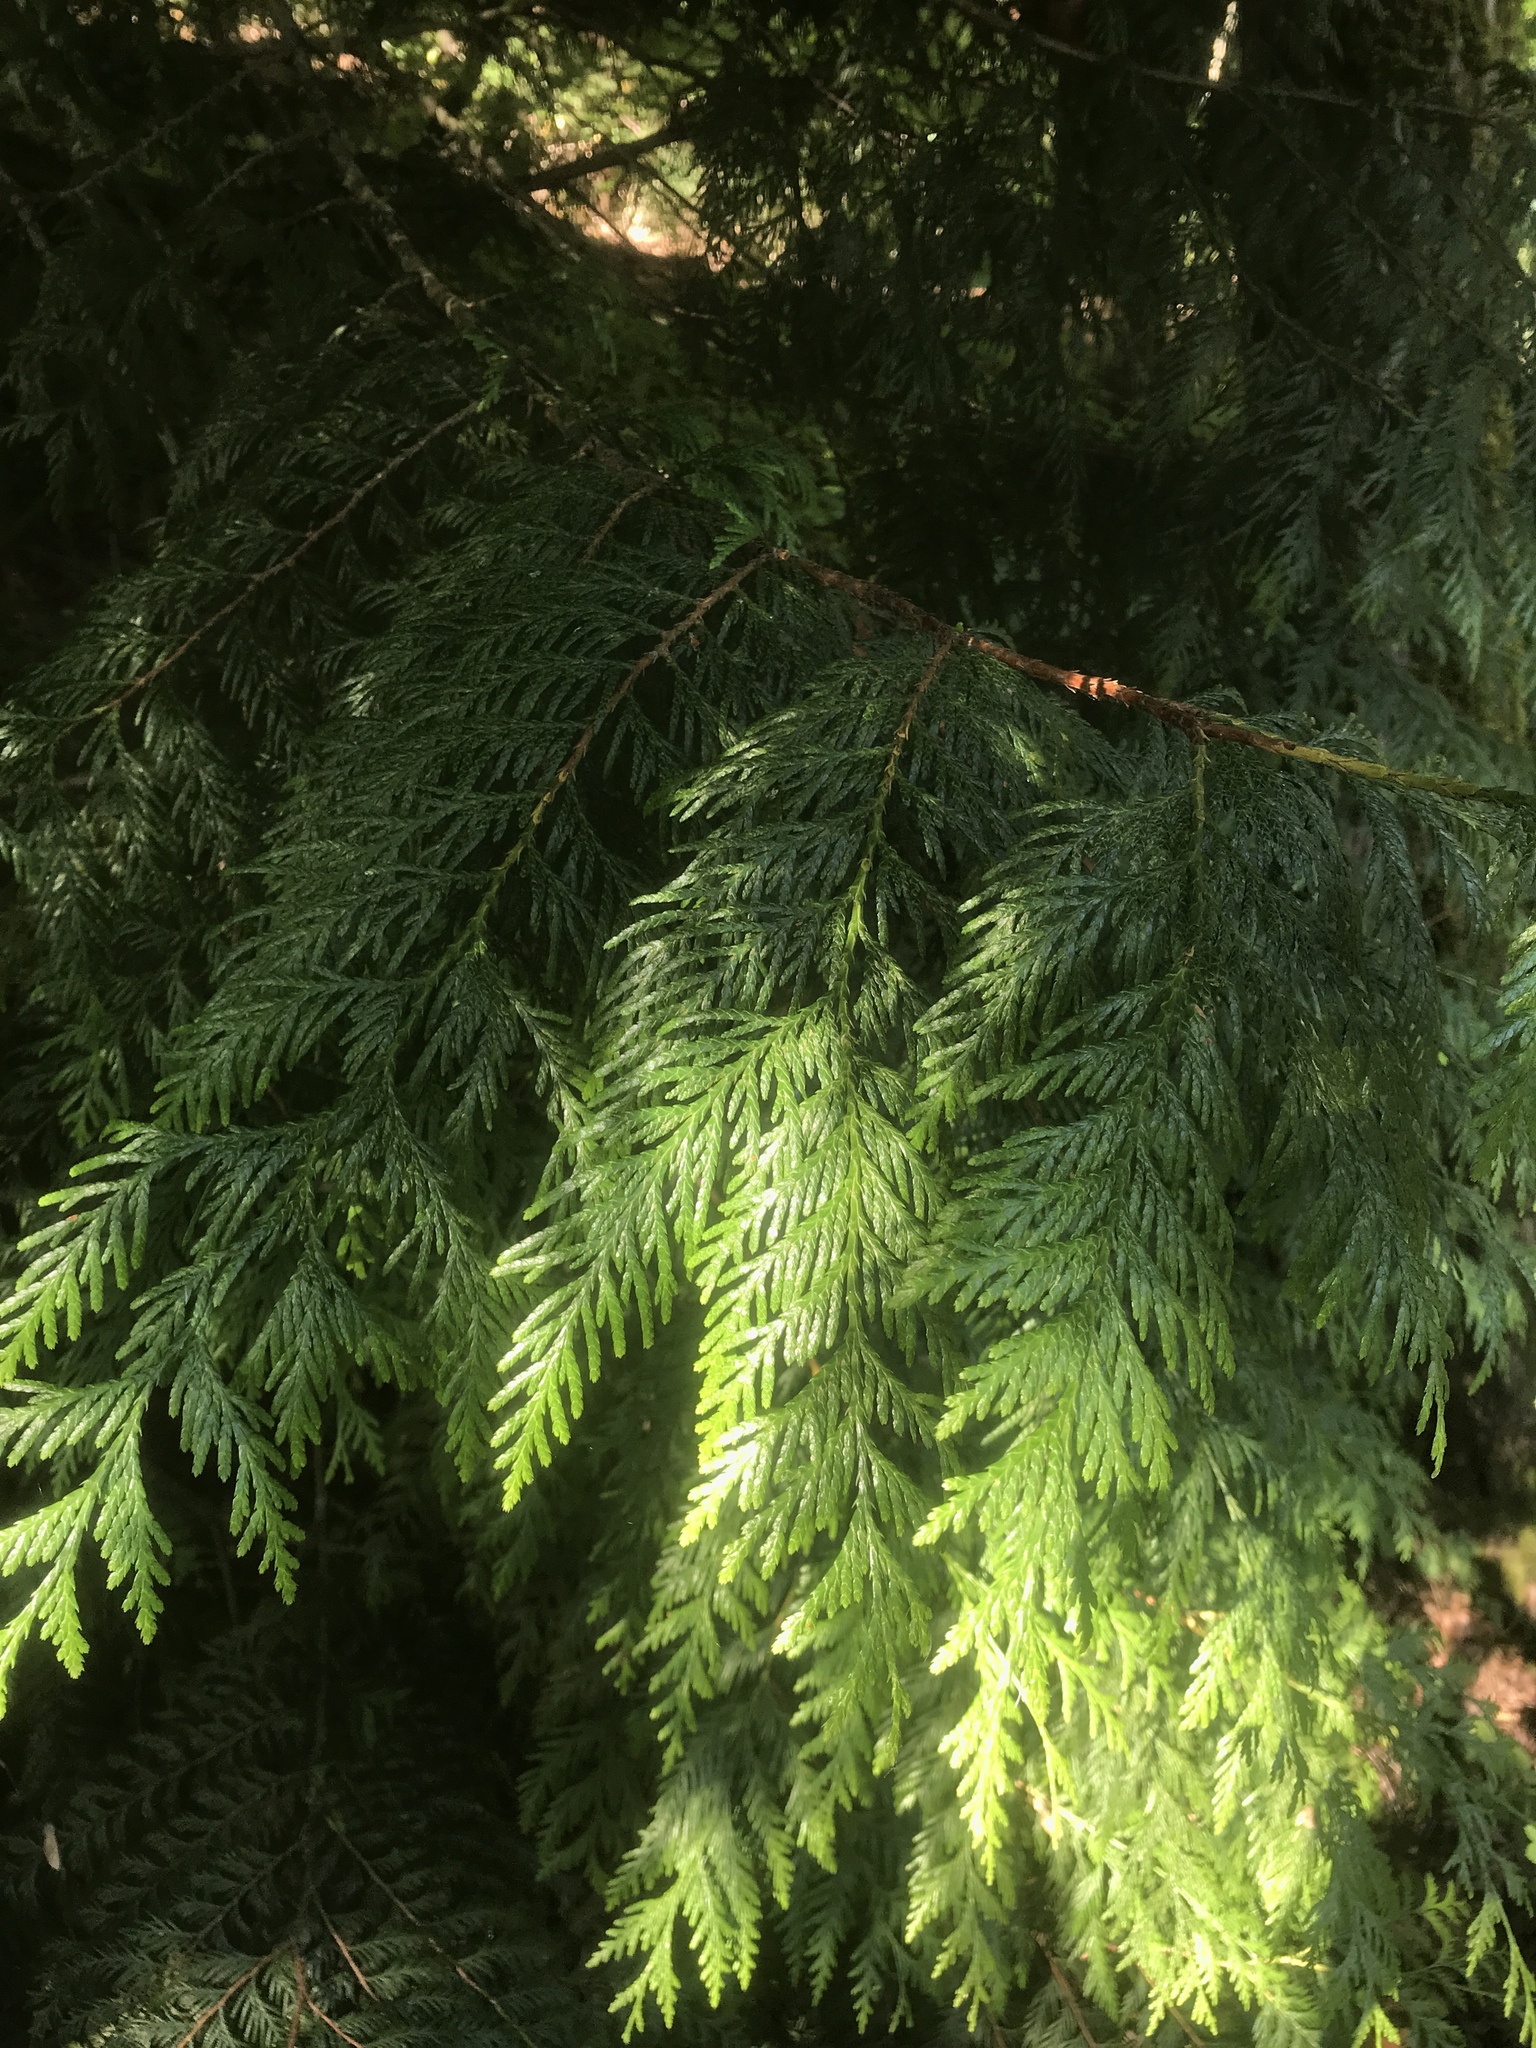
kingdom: Plantae
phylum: Tracheophyta
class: Pinopsida
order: Pinales
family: Cupressaceae
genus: Thuja
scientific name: Thuja plicata
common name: Western red-cedar
